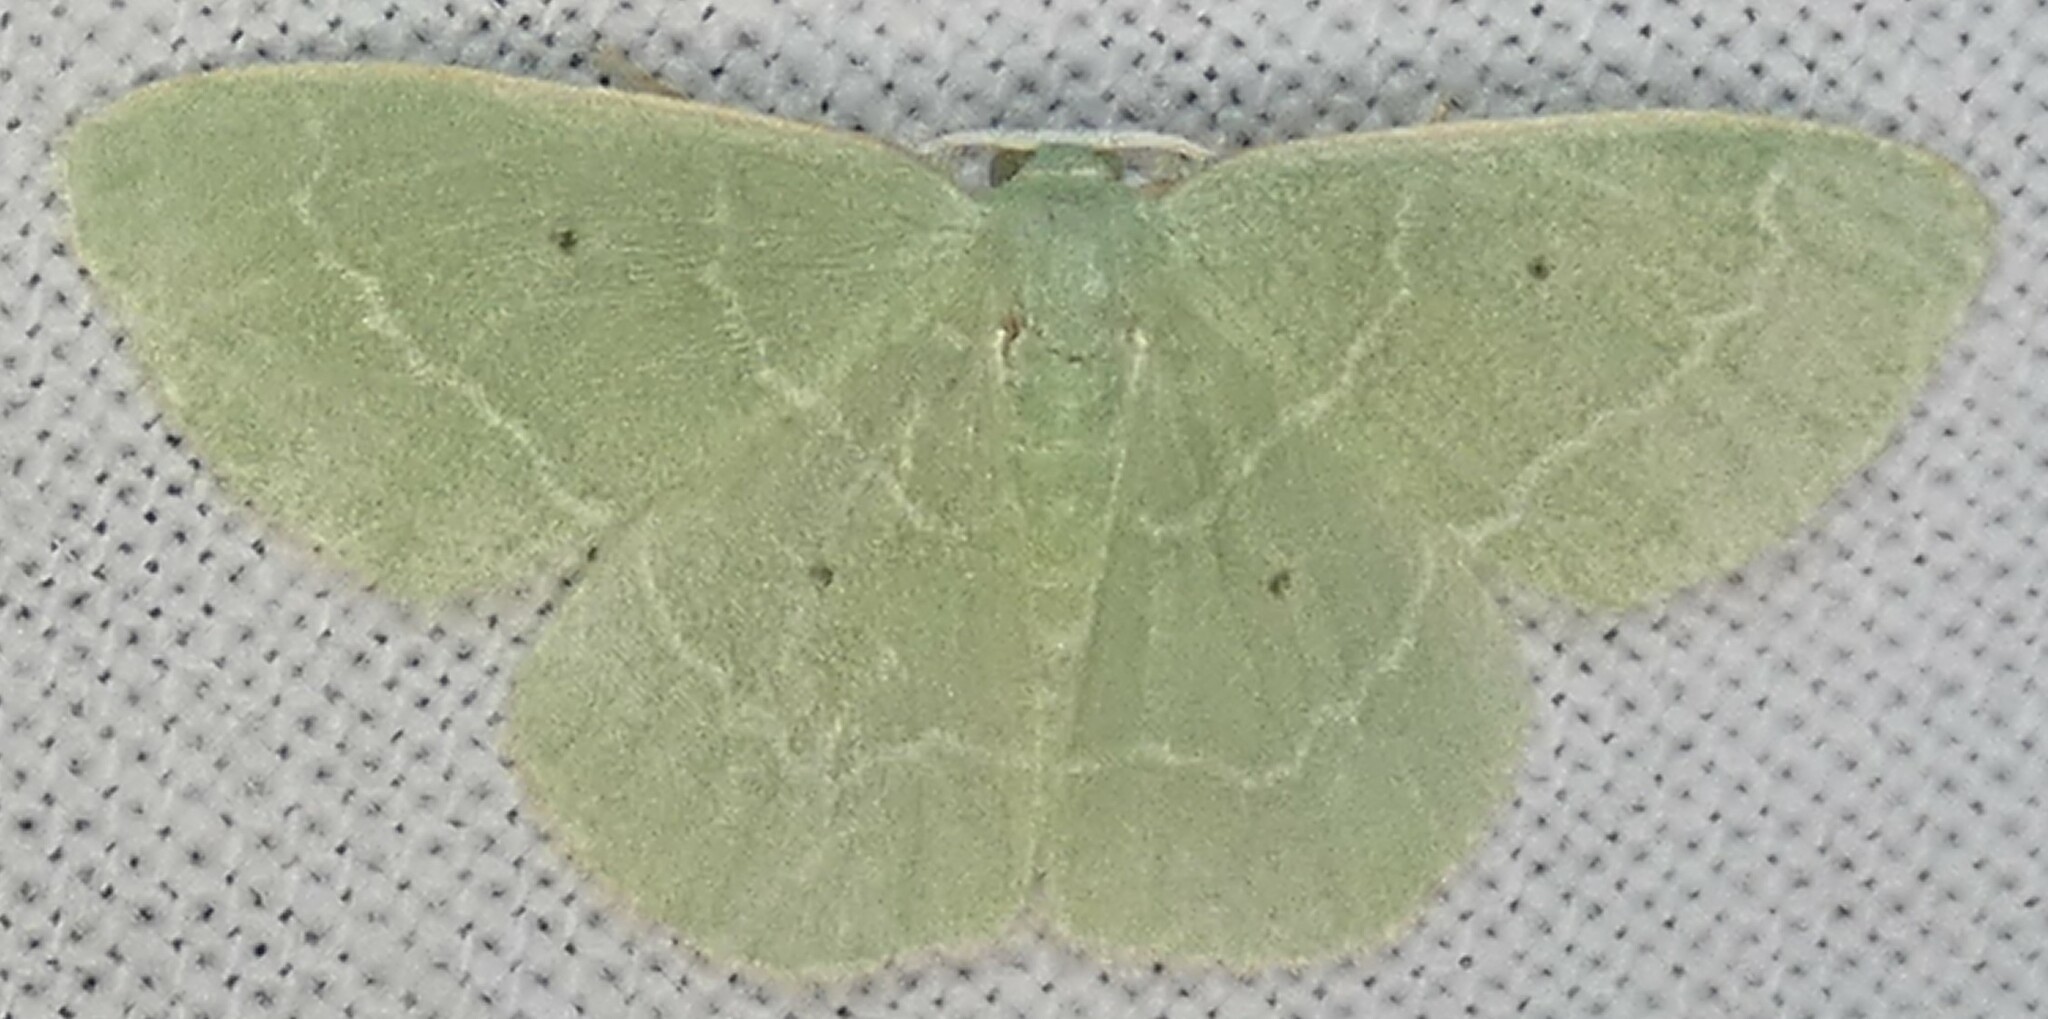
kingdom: Animalia
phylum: Arthropoda
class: Insecta
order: Lepidoptera
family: Geometridae
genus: Nemoria
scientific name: Nemoria elfa
